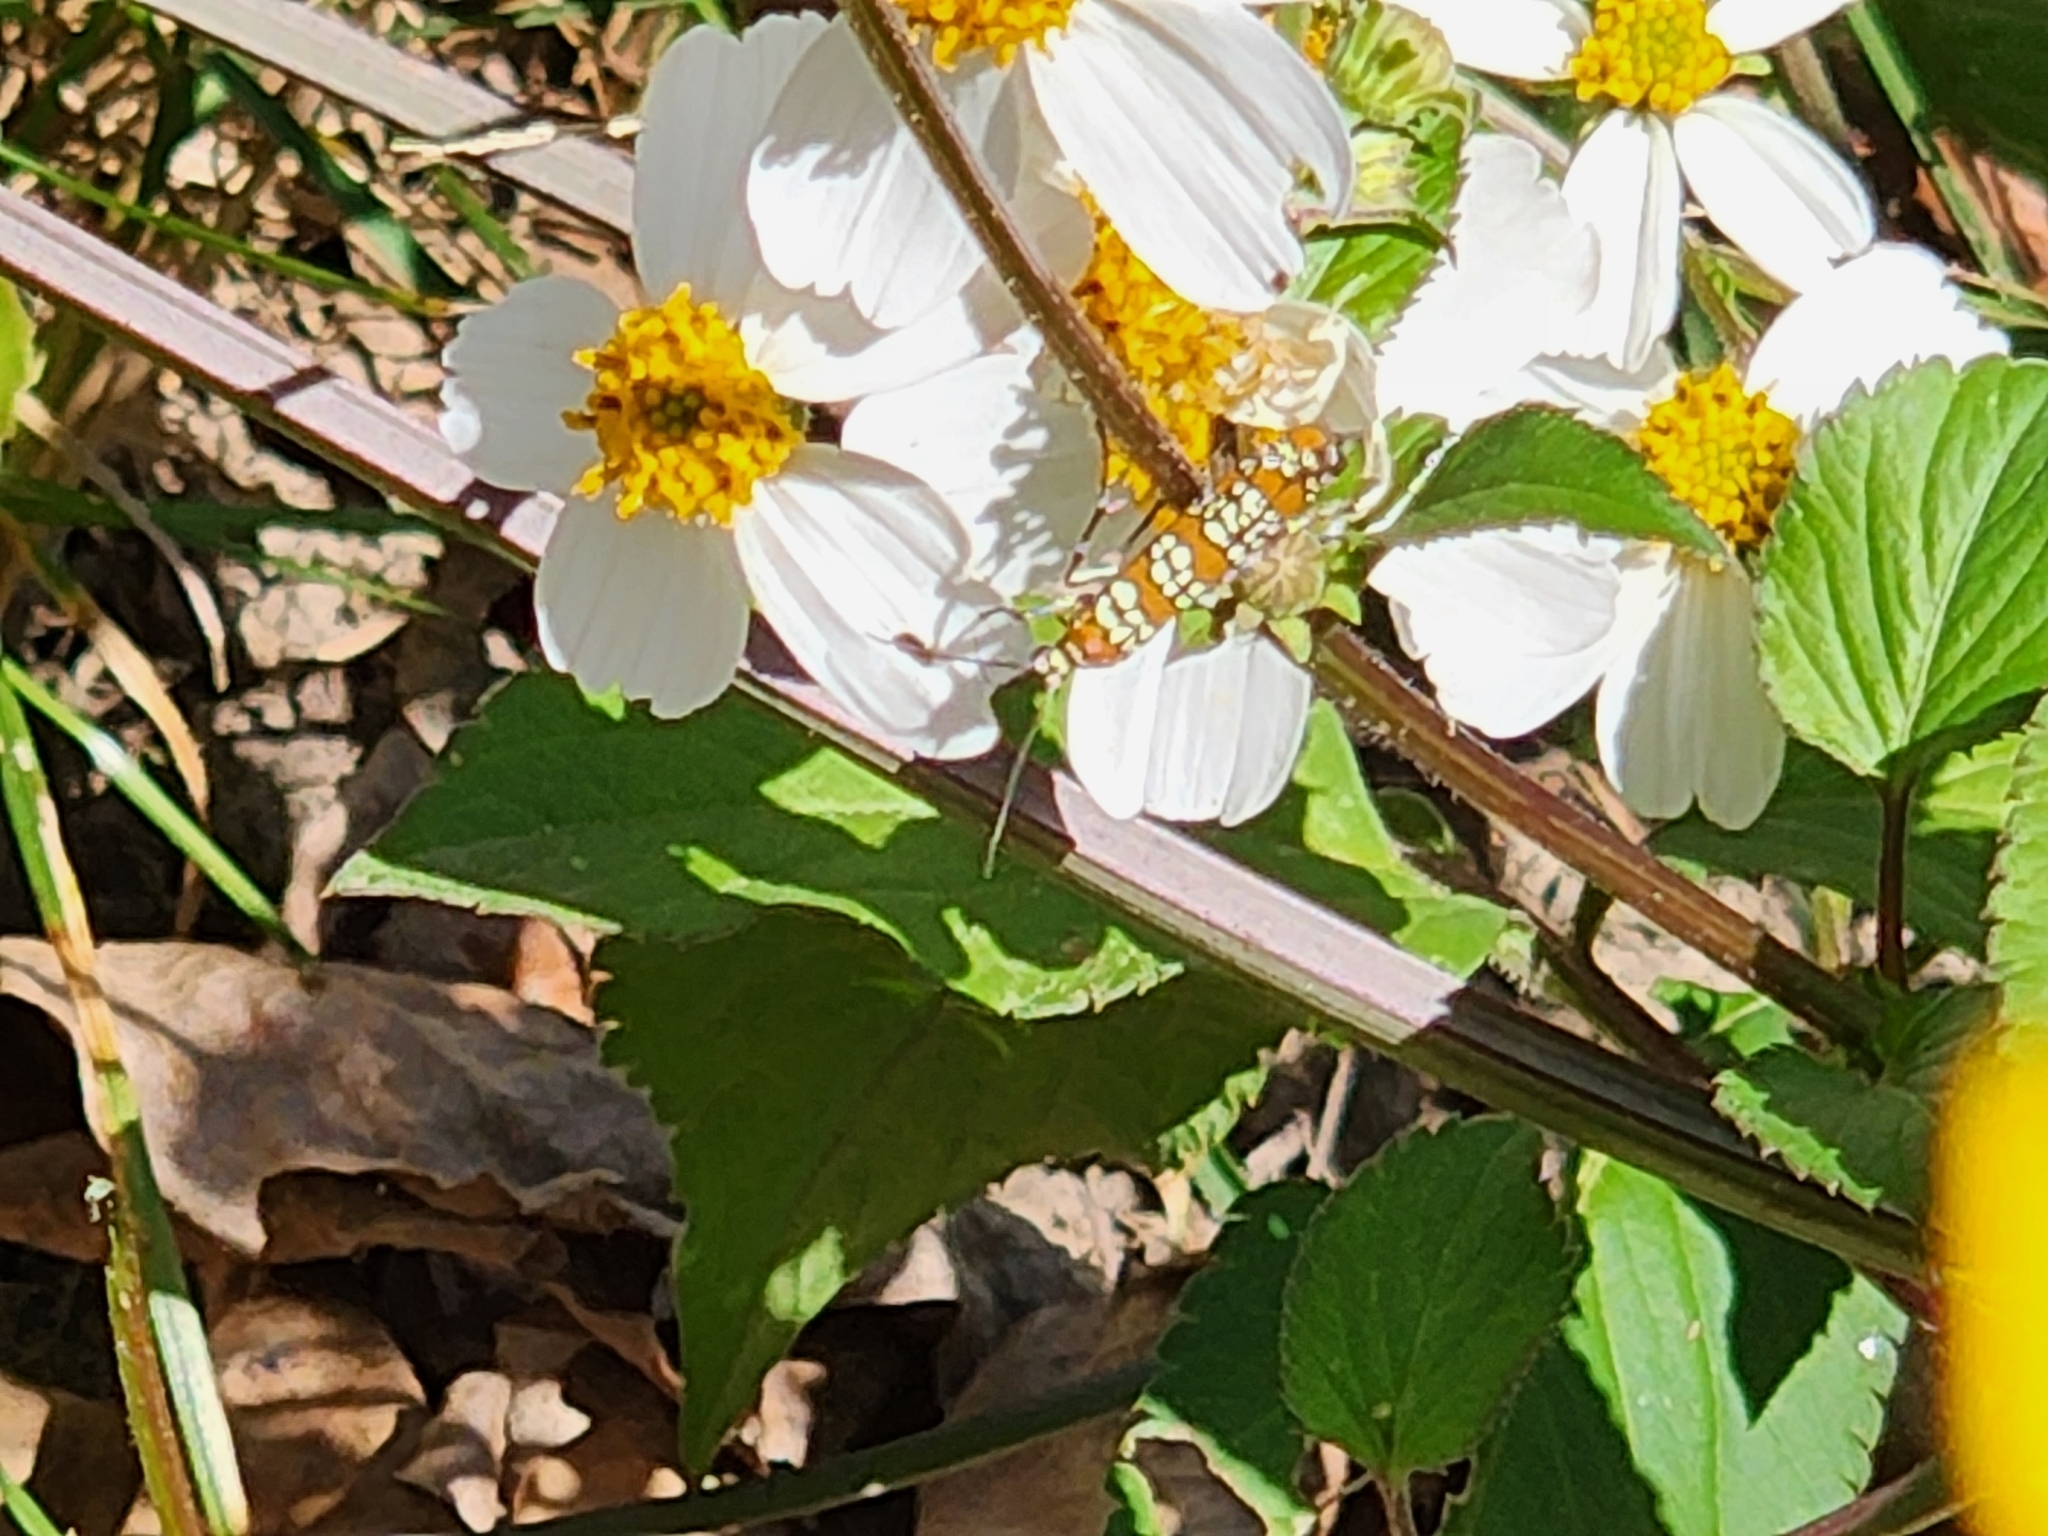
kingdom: Animalia
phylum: Arthropoda
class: Insecta
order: Lepidoptera
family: Attevidae
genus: Atteva
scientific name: Atteva punctella
